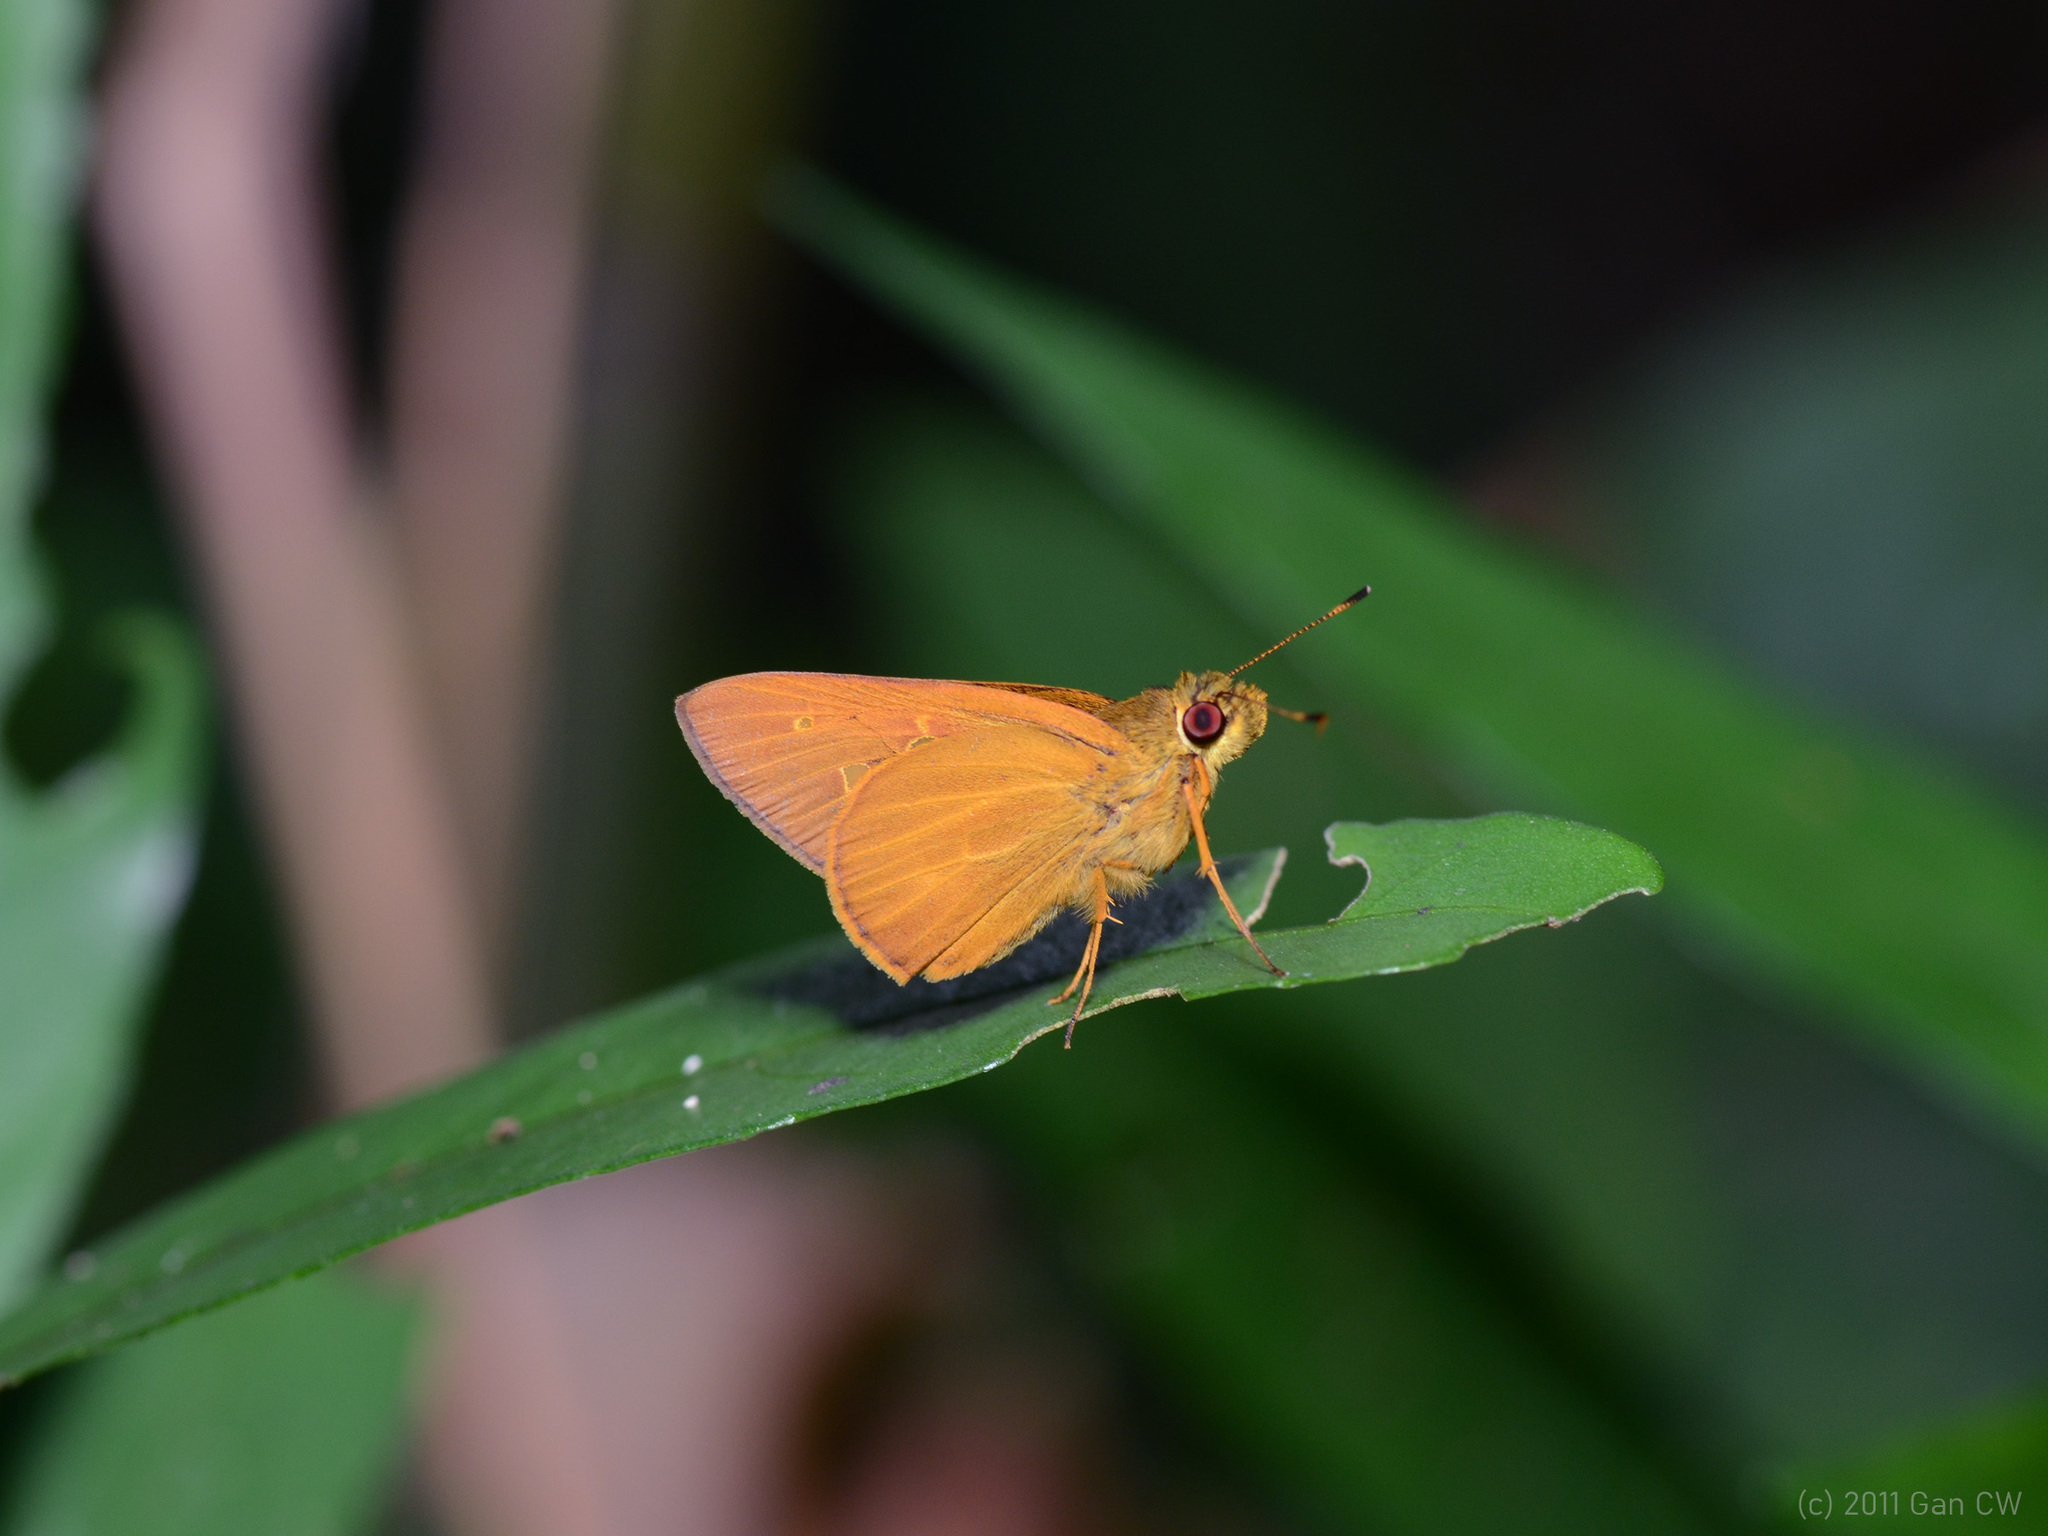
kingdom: Animalia
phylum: Arthropoda
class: Insecta
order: Lepidoptera
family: Hesperiidae
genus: Xanthoneura
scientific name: Xanthoneura corissa
